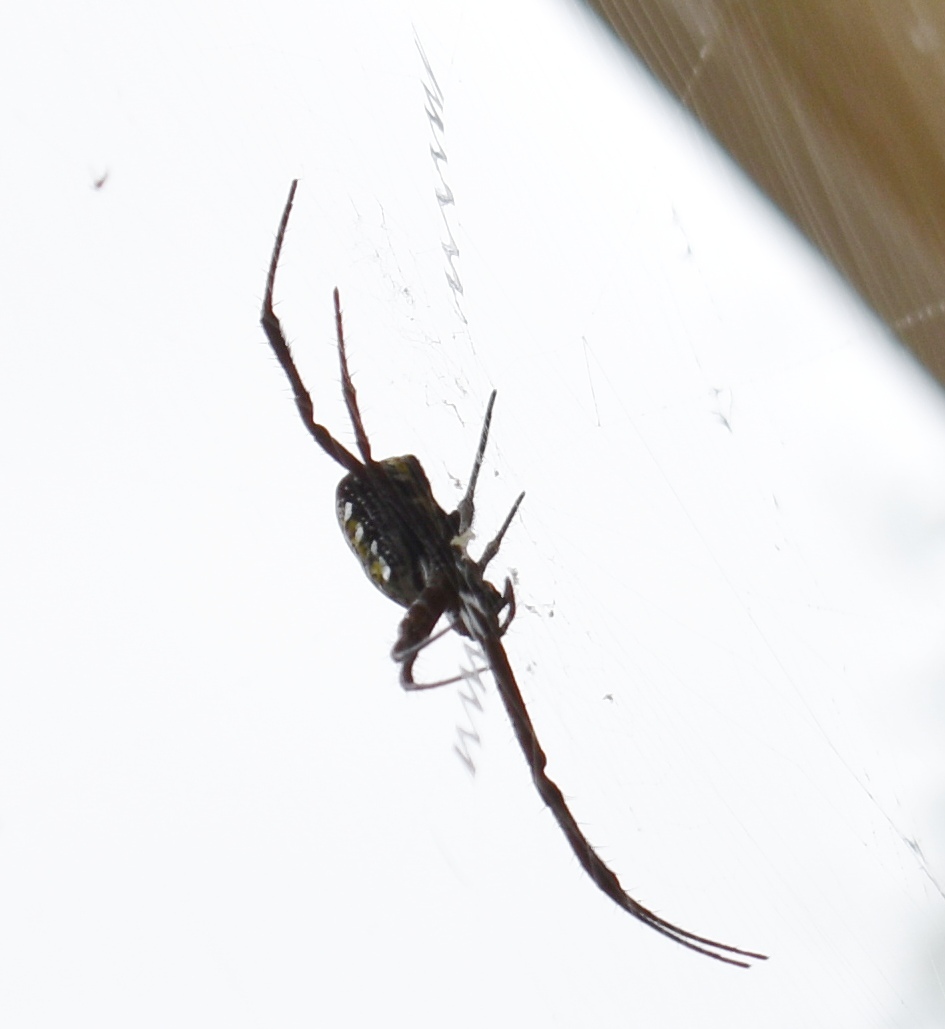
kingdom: Animalia
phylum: Arthropoda
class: Arachnida
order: Araneae
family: Araneidae
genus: Argiope
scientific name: Argiope appensa
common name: Garden spider
